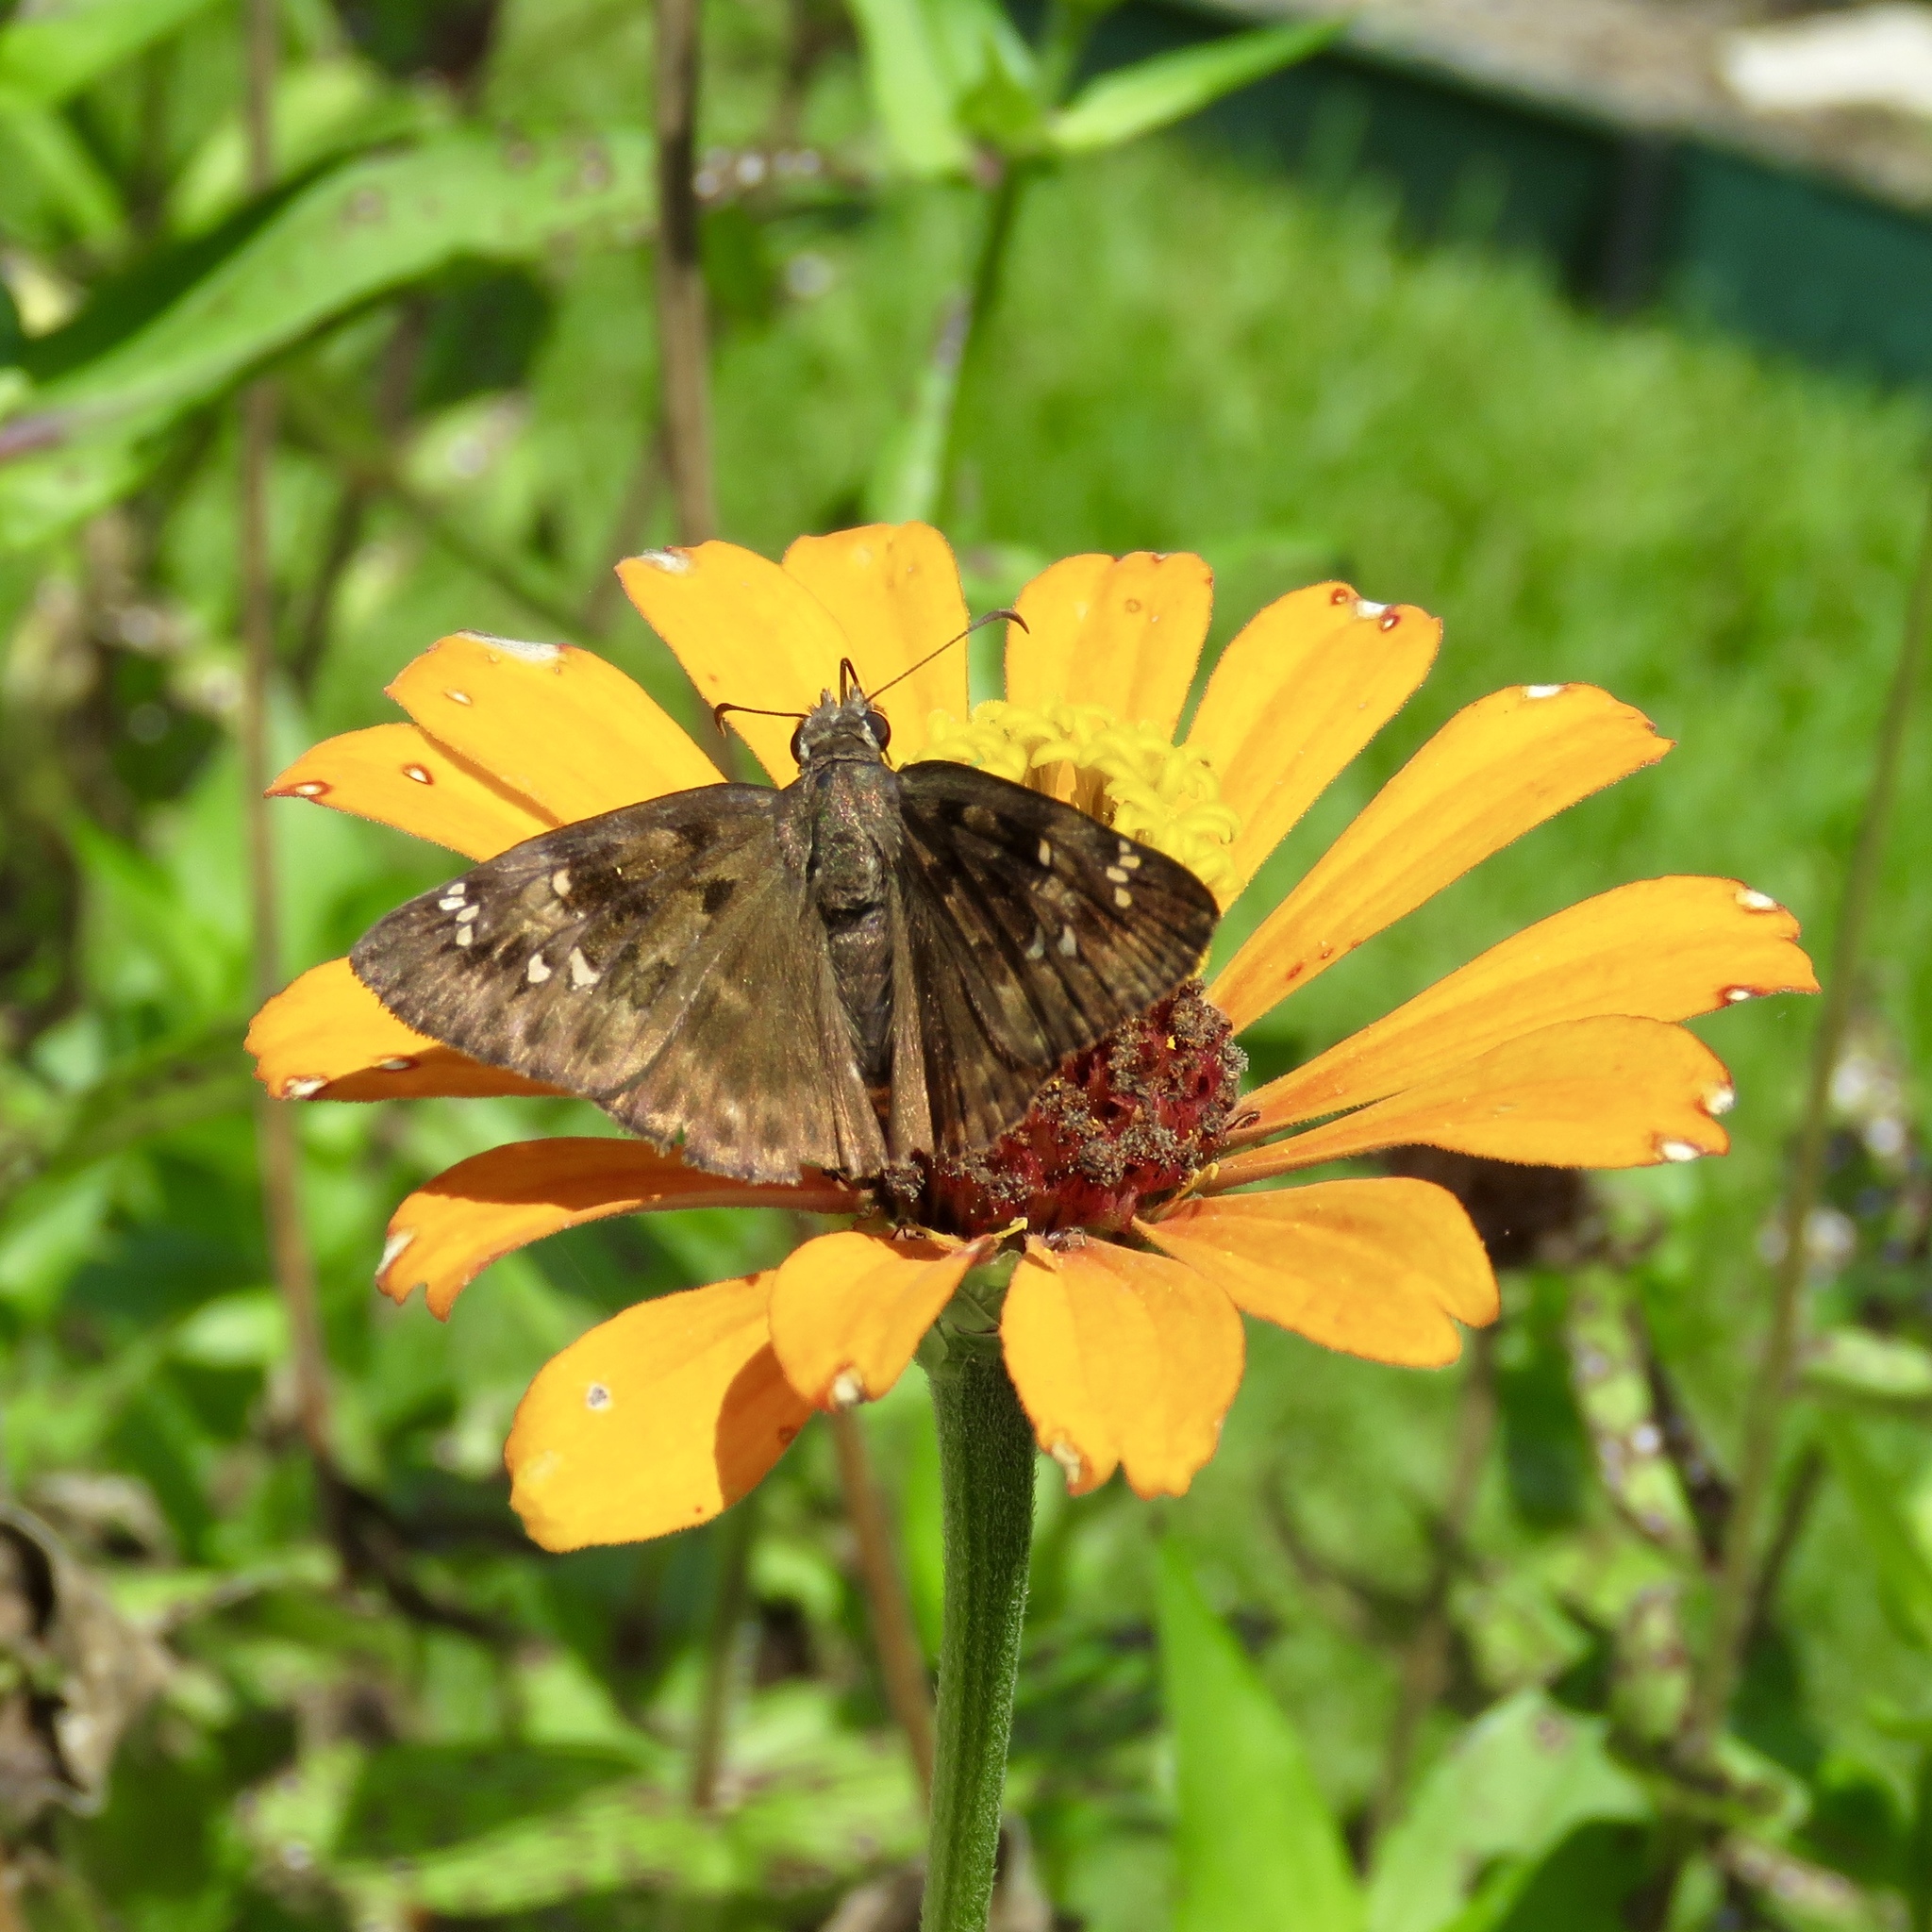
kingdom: Animalia
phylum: Arthropoda
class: Insecta
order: Lepidoptera
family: Hesperiidae
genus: Erynnis
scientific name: Erynnis horatius
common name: Horace's duskywing
